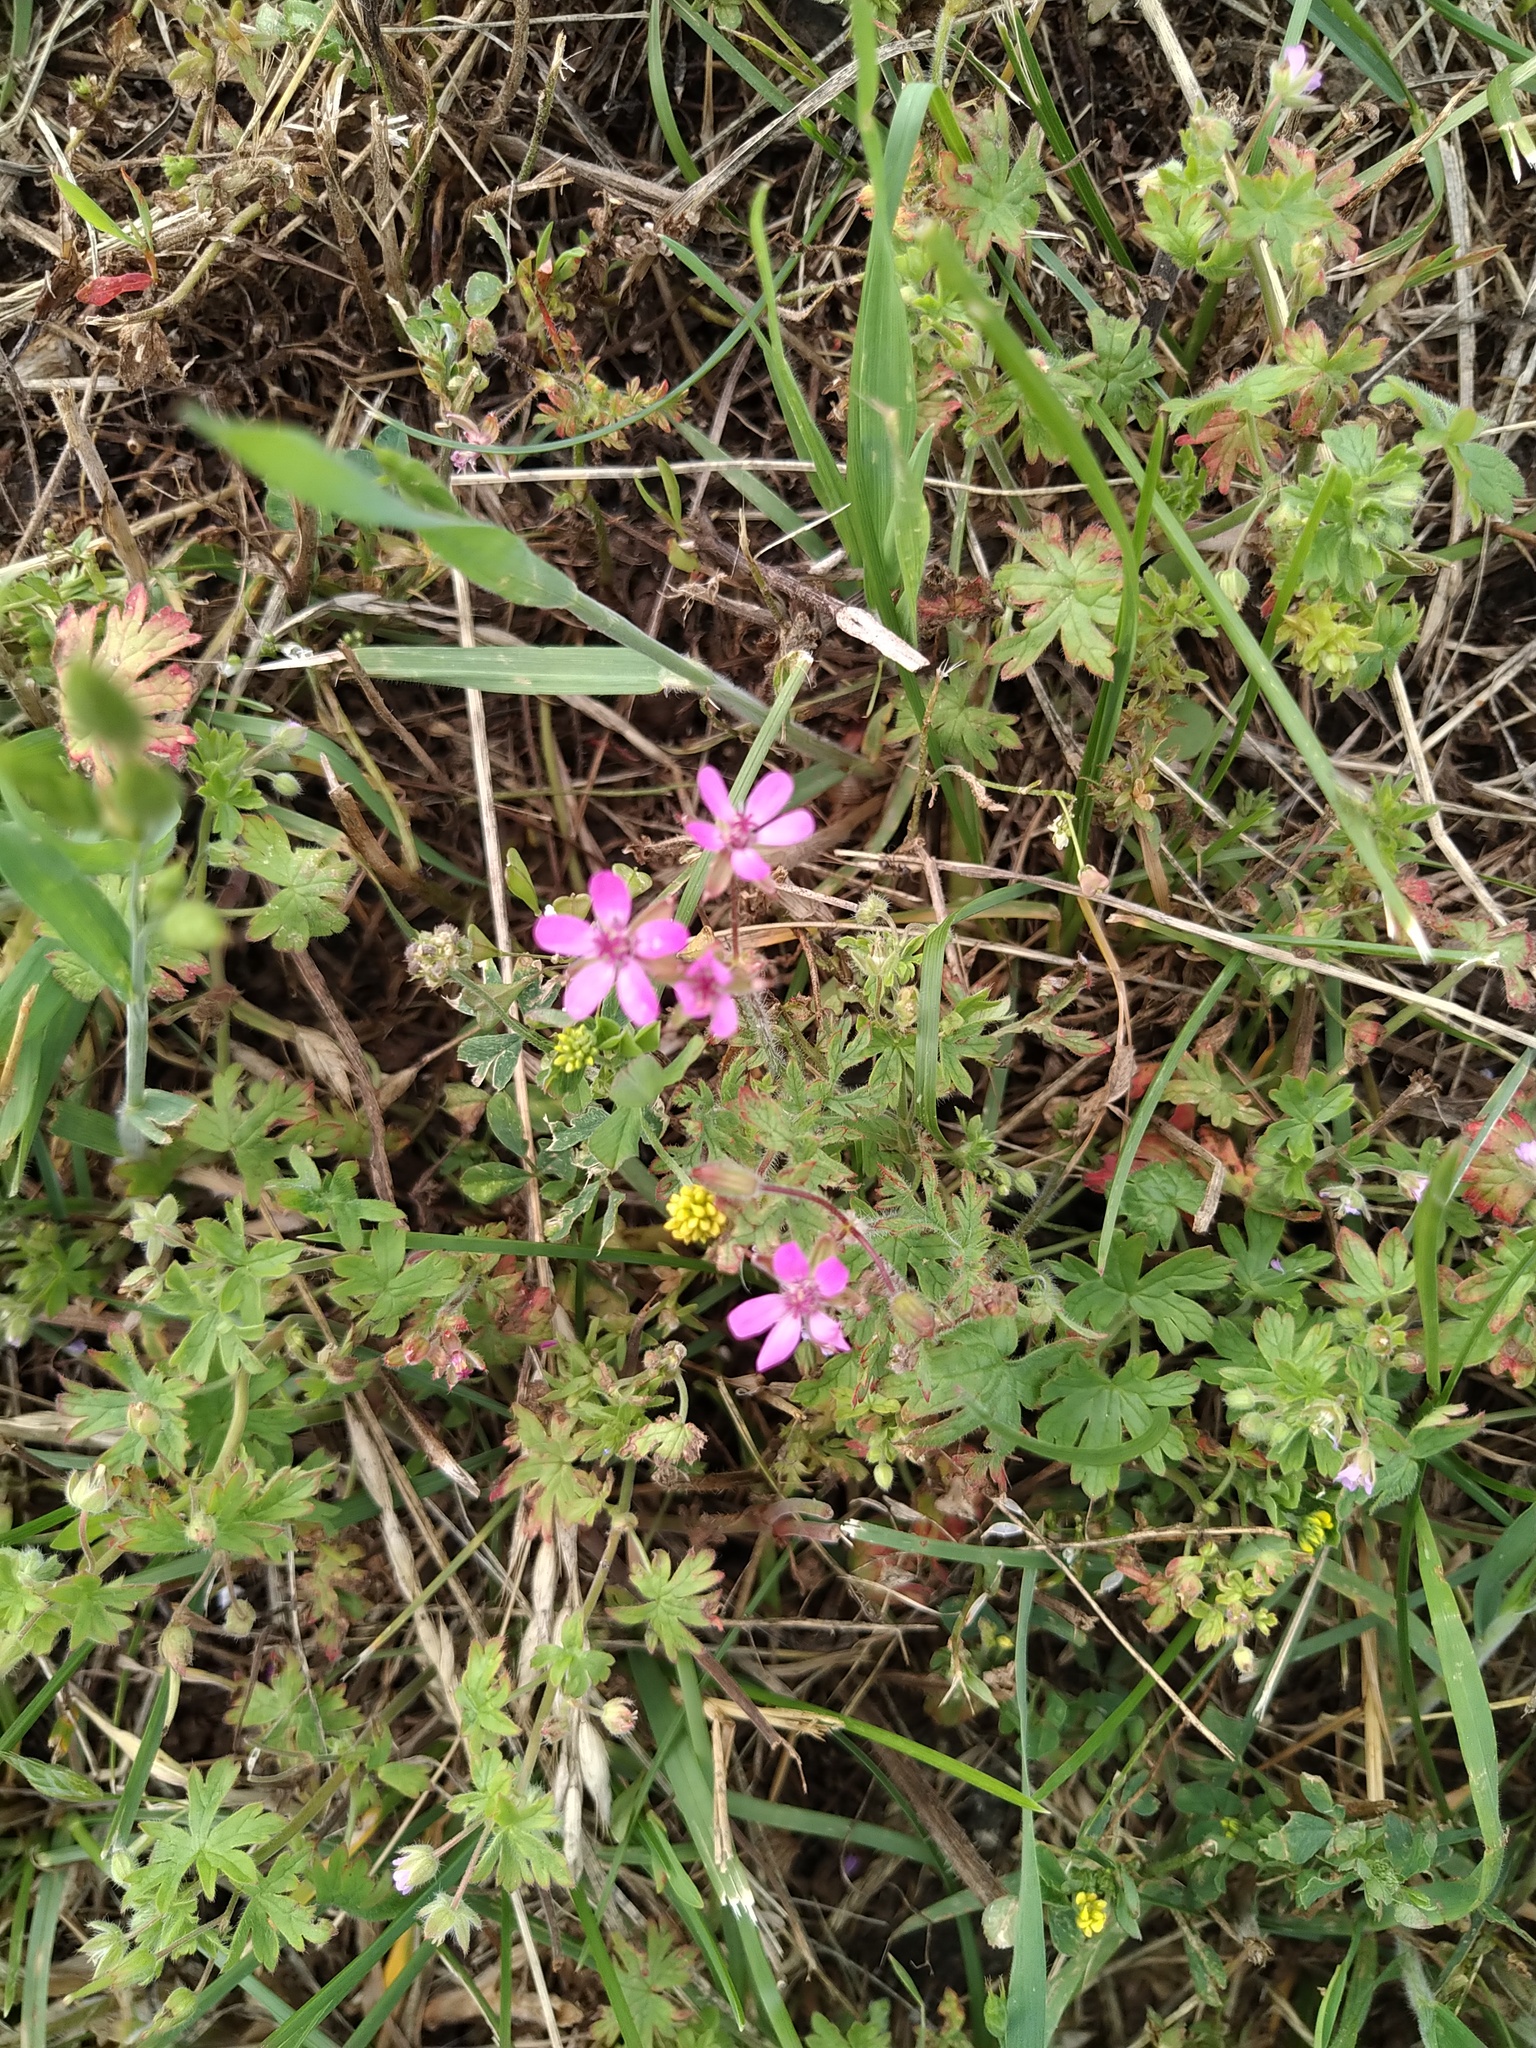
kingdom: Plantae
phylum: Tracheophyta
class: Magnoliopsida
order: Geraniales
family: Geraniaceae
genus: Erodium
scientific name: Erodium cicutarium
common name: Common stork's-bill
